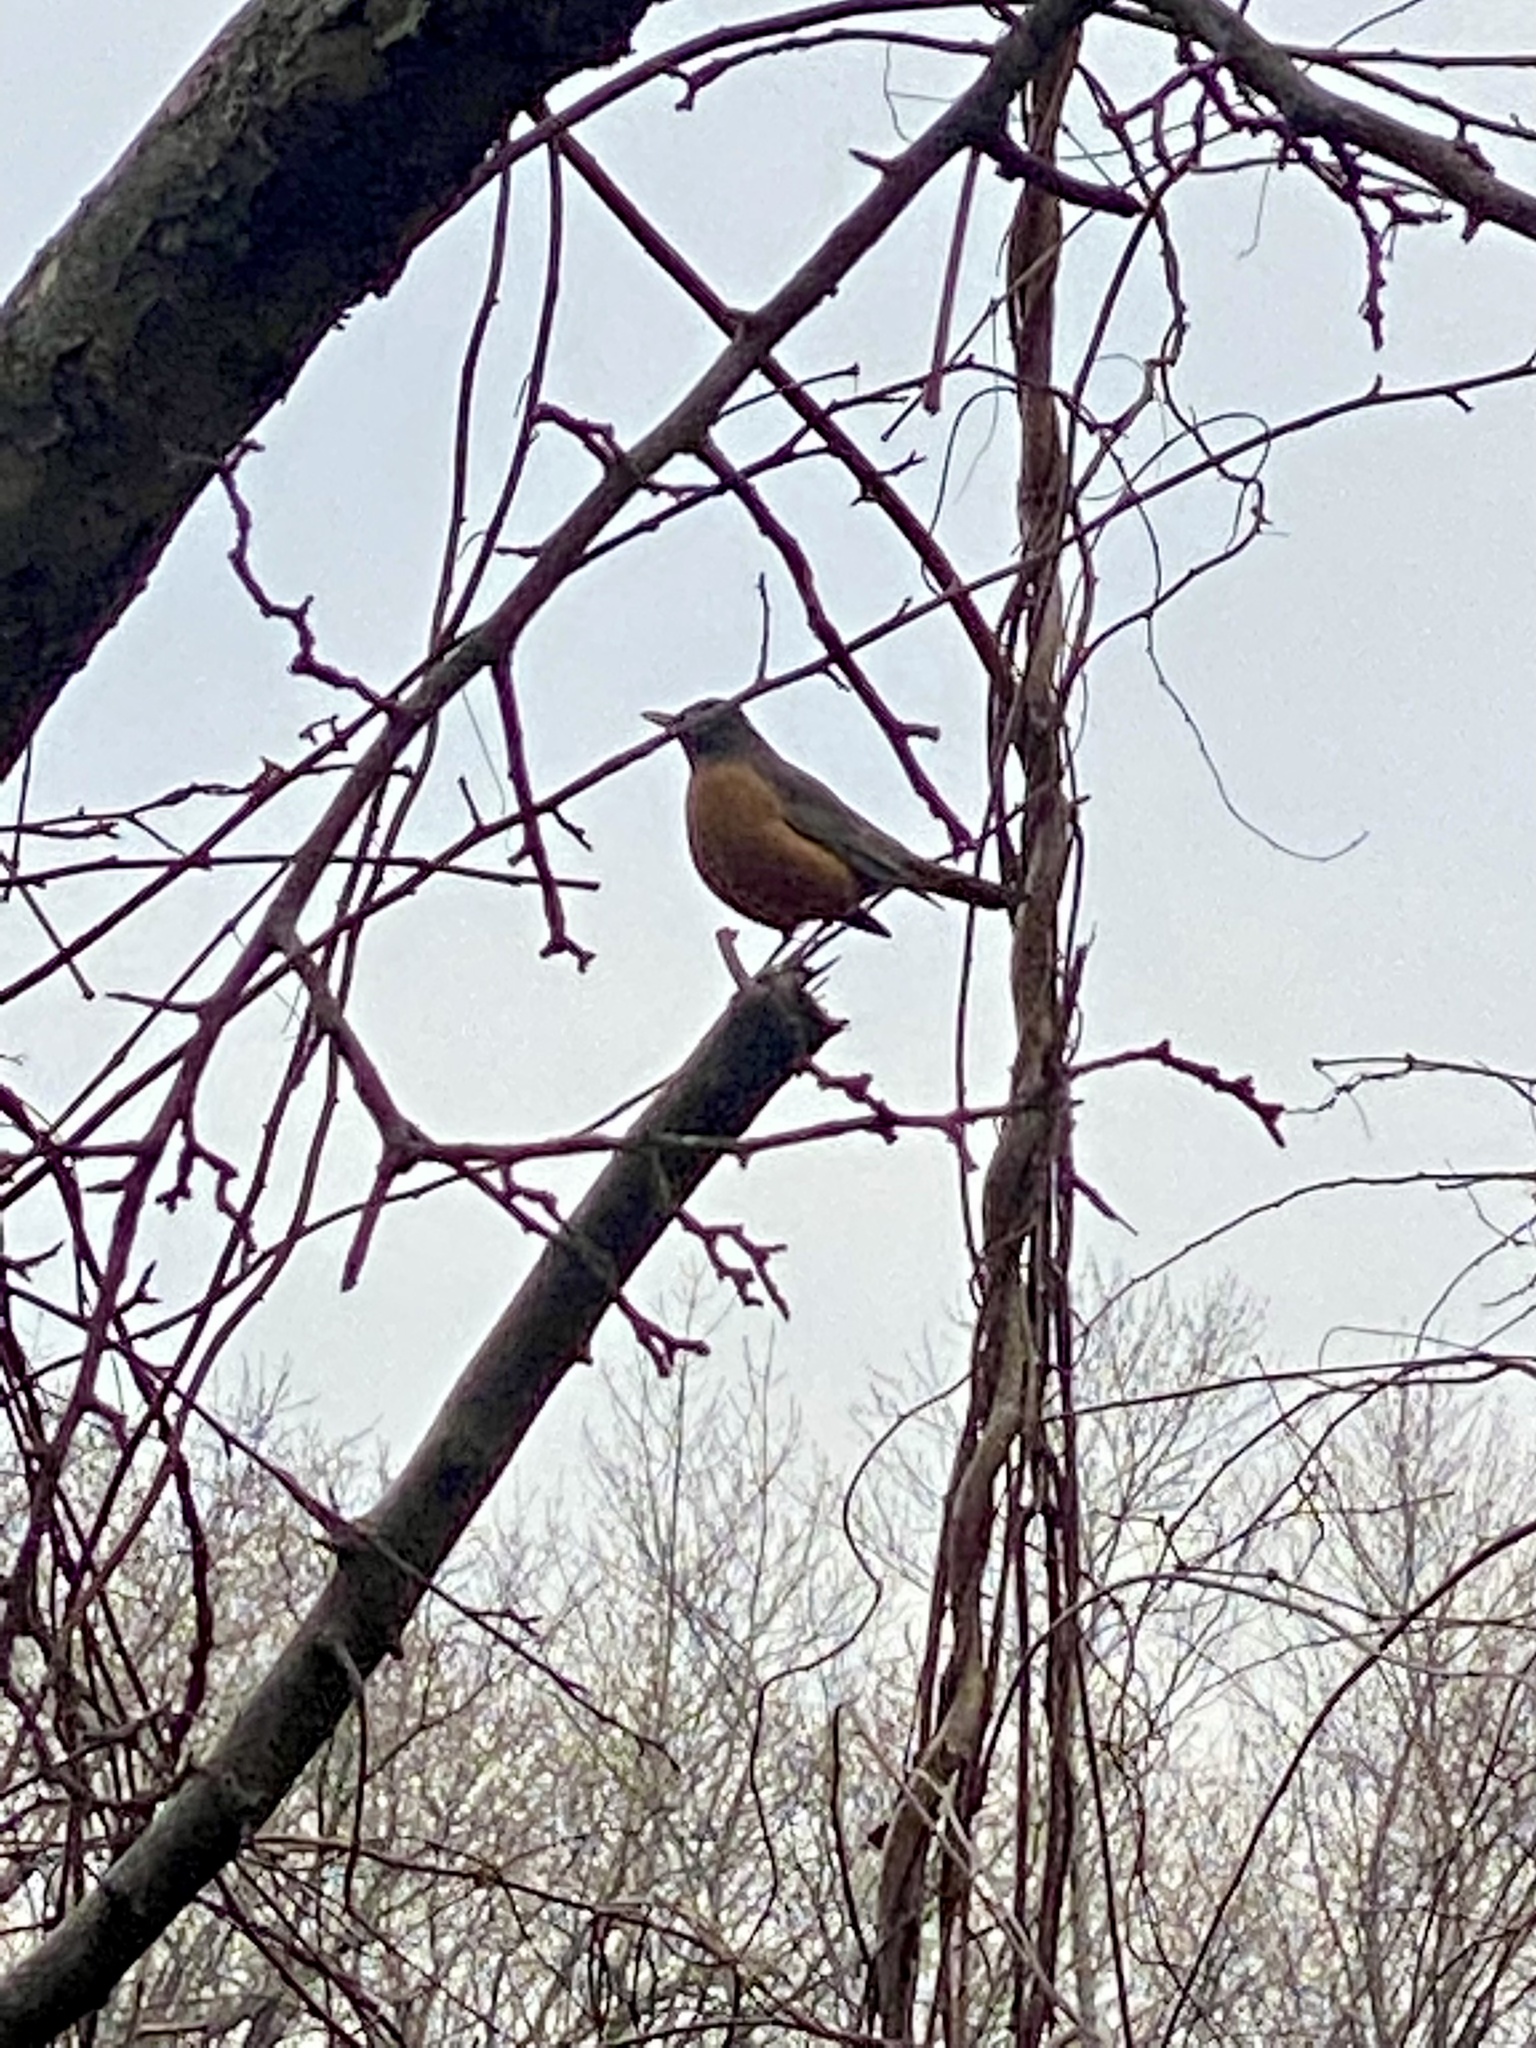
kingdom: Animalia
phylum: Chordata
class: Aves
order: Passeriformes
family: Turdidae
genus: Turdus
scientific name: Turdus migratorius
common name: American robin
